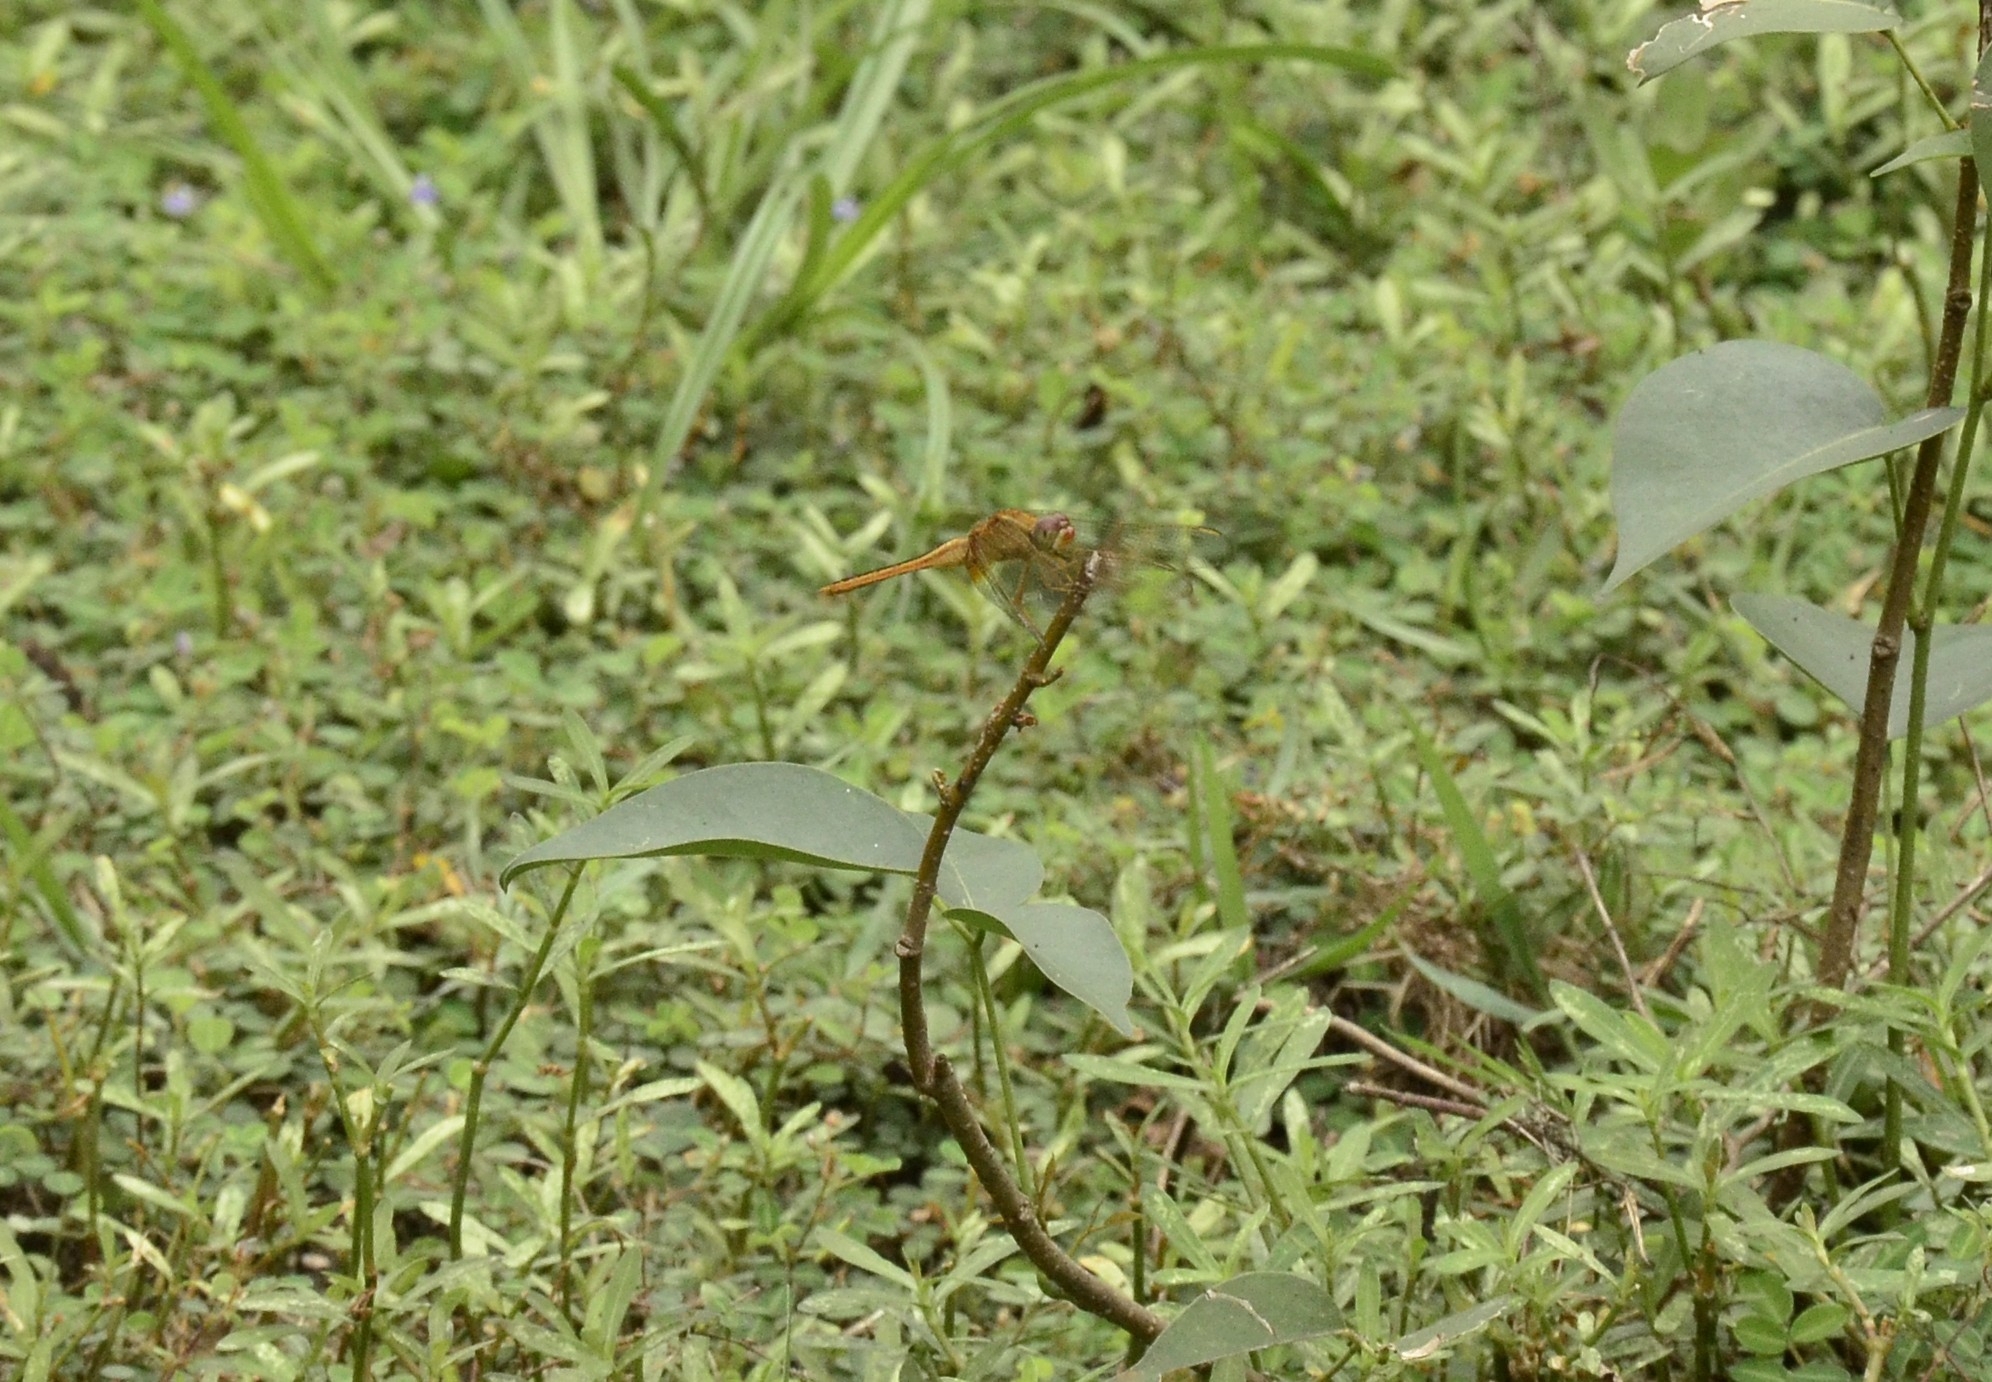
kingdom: Animalia
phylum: Arthropoda
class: Insecta
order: Odonata
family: Libellulidae
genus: Crocothemis
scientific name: Crocothemis servilia
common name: Scarlet skimmer
